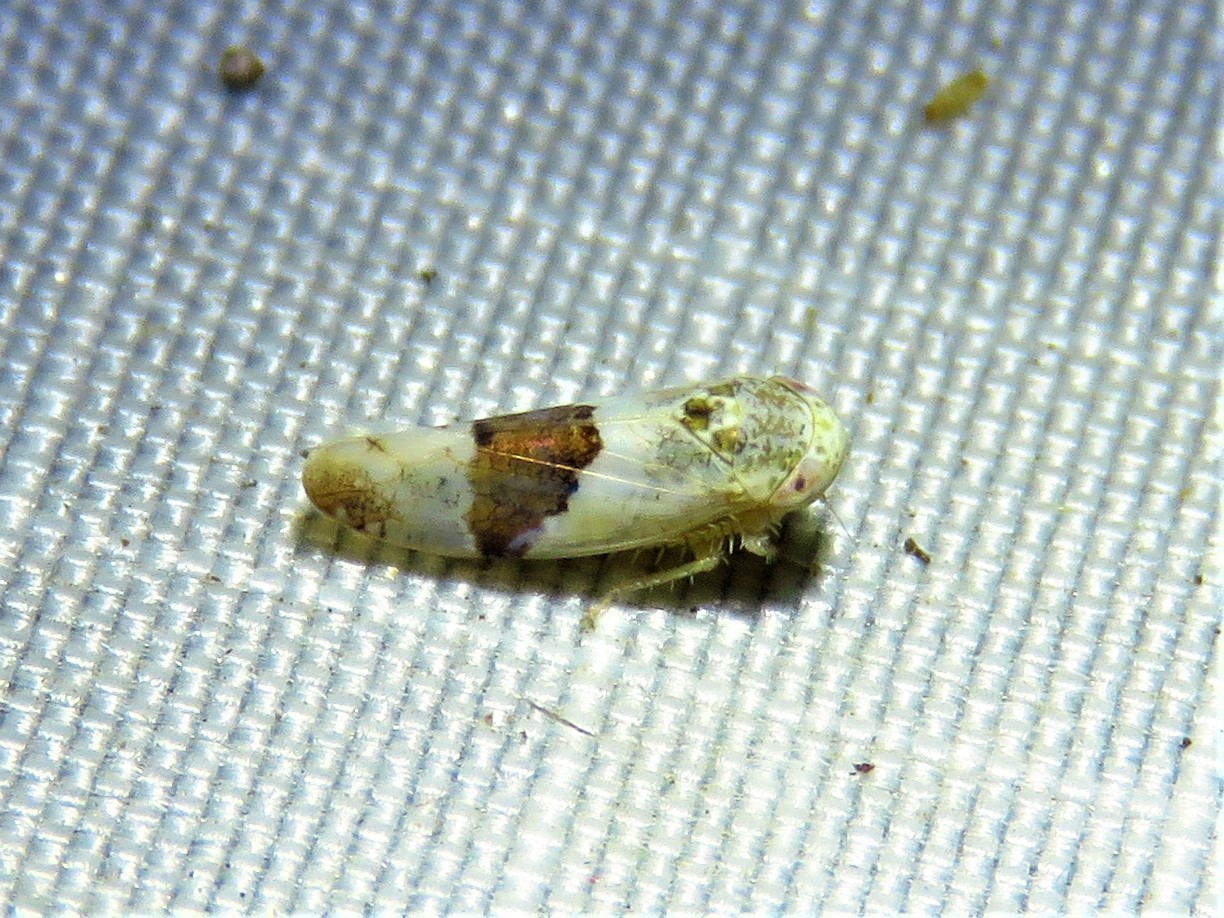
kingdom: Animalia
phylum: Arthropoda
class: Insecta
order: Hemiptera
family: Cicadellidae
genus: Norvellina
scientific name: Norvellina seminuda
